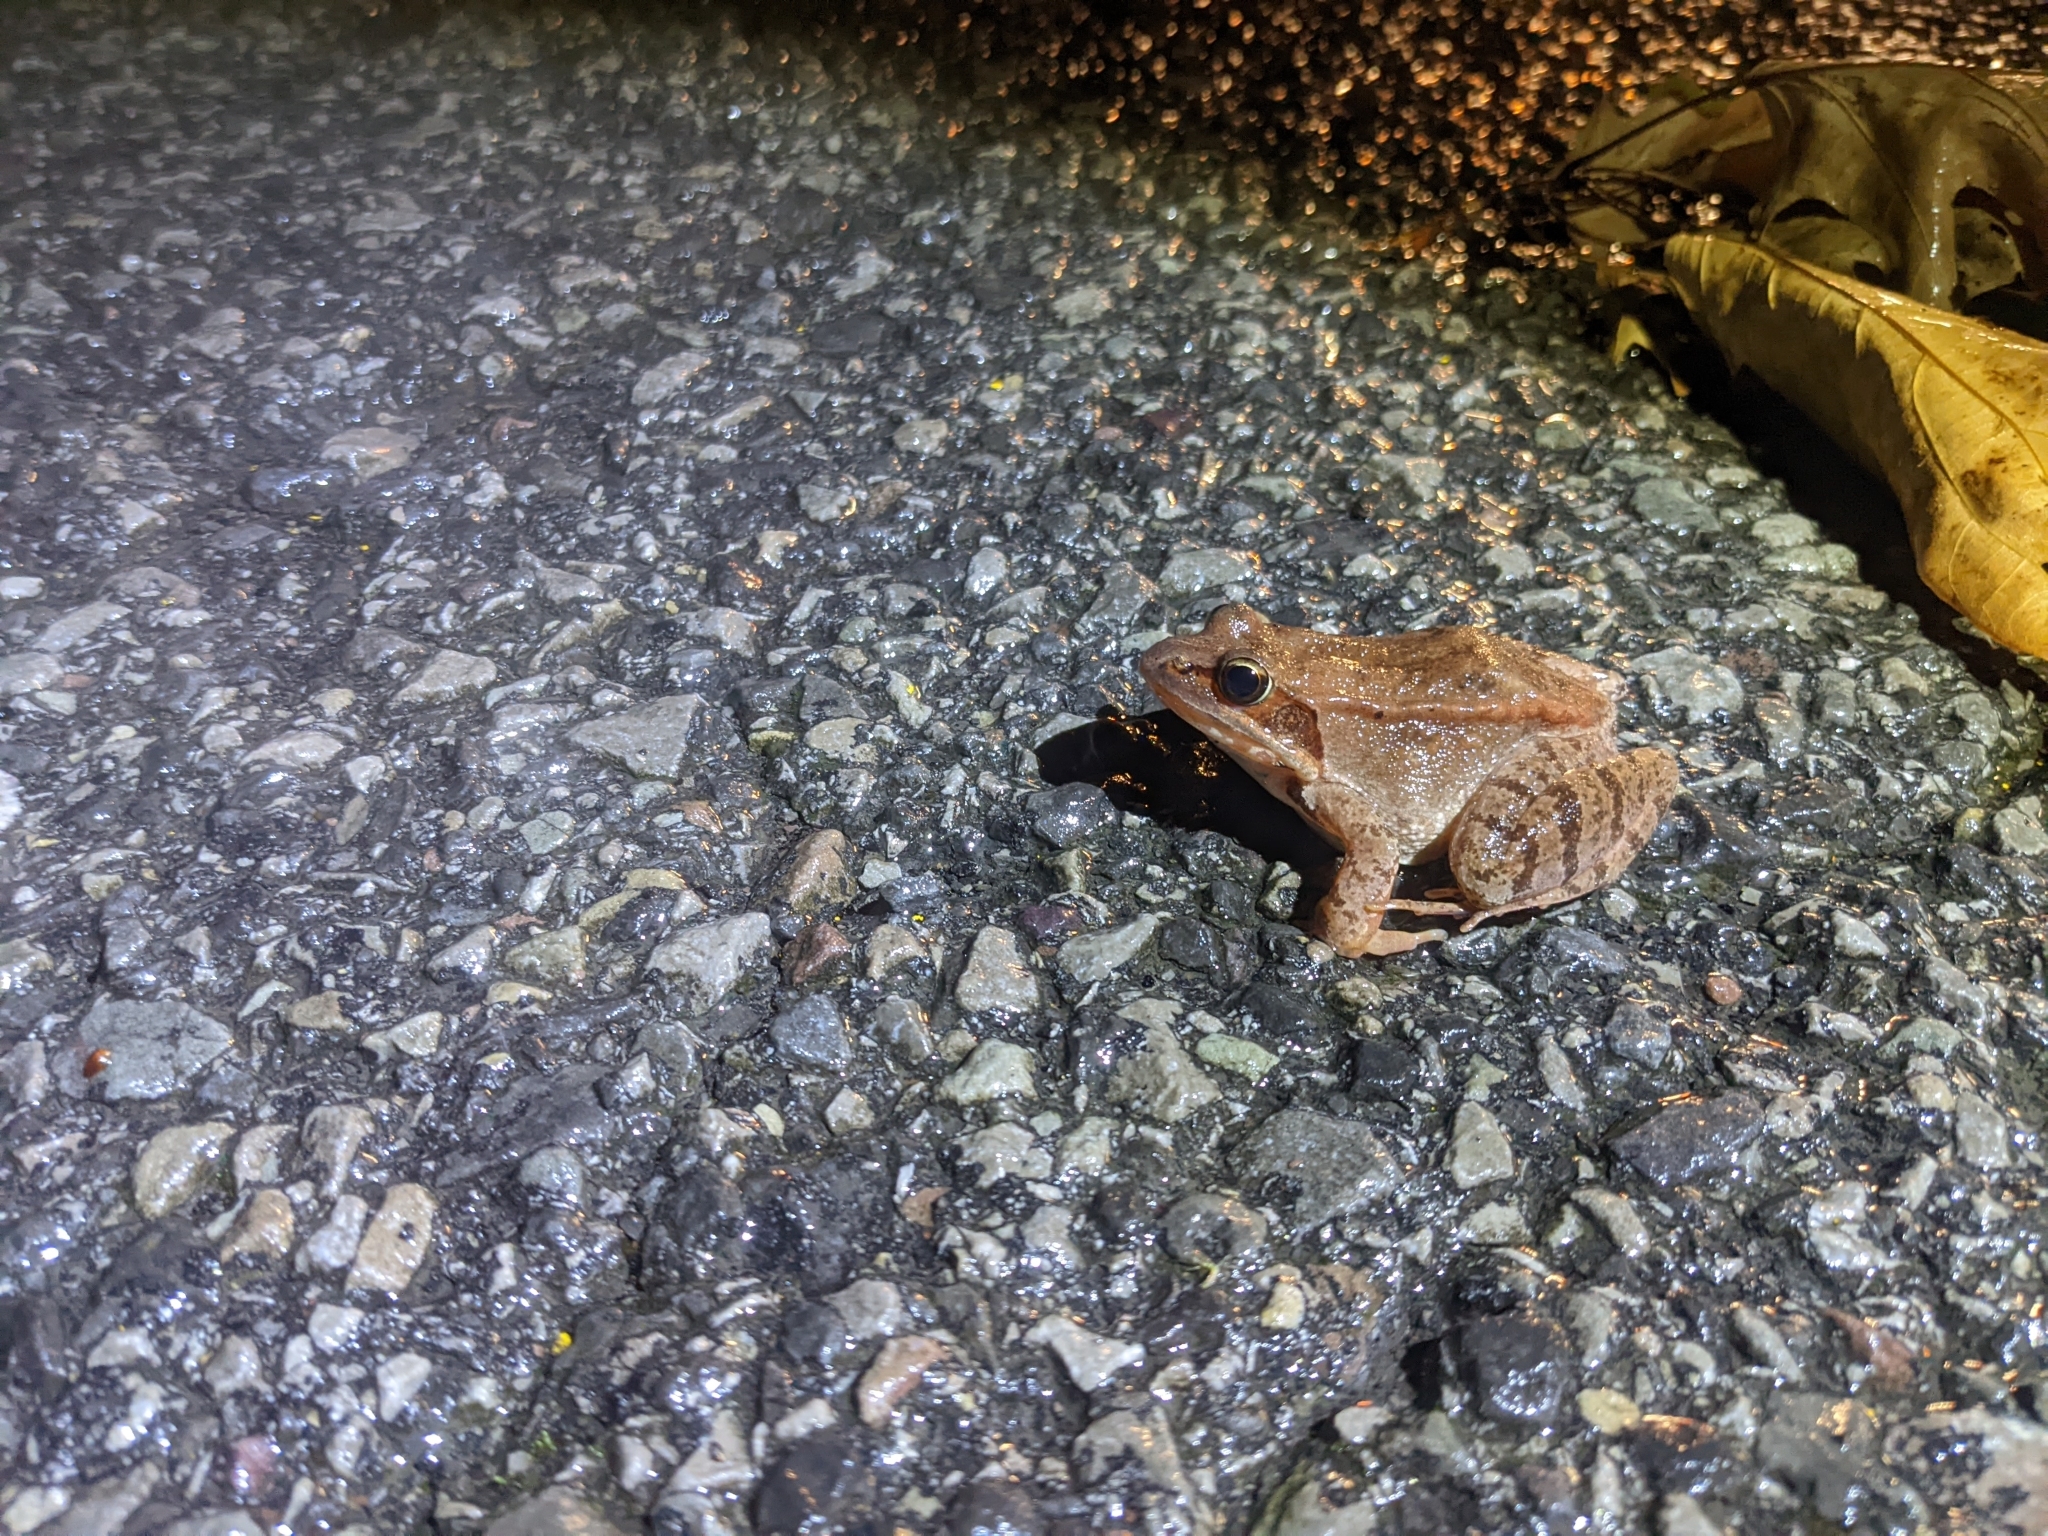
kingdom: Animalia
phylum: Chordata
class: Amphibia
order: Anura
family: Ranidae
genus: Lithobates
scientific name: Lithobates sylvaticus
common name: Wood frog
